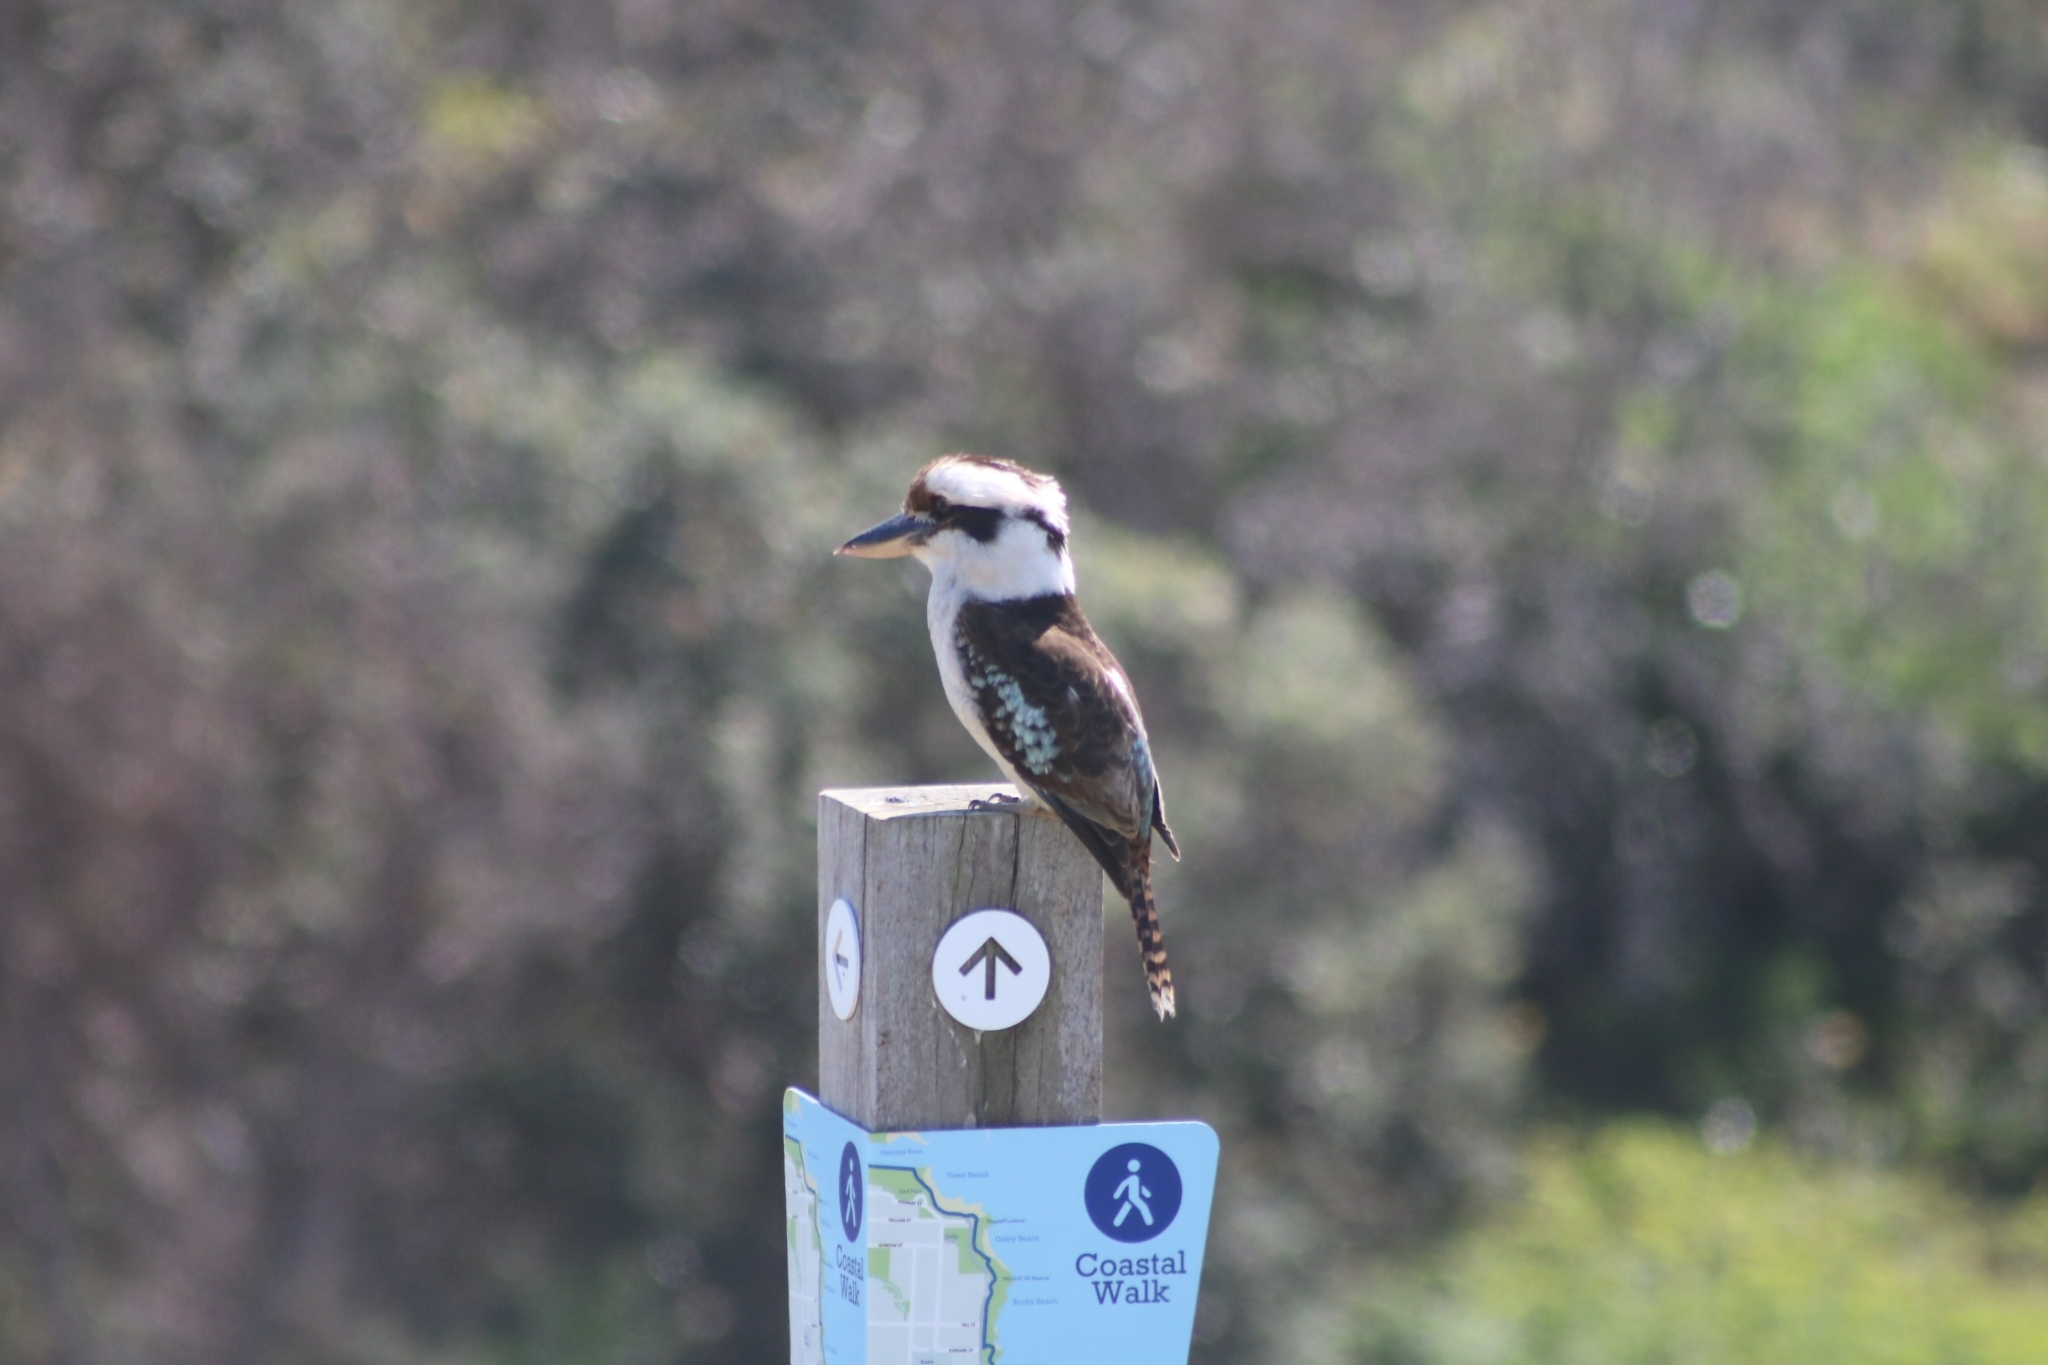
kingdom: Animalia
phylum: Chordata
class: Aves
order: Coraciiformes
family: Alcedinidae
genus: Dacelo
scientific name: Dacelo novaeguineae
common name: Laughing kookaburra
